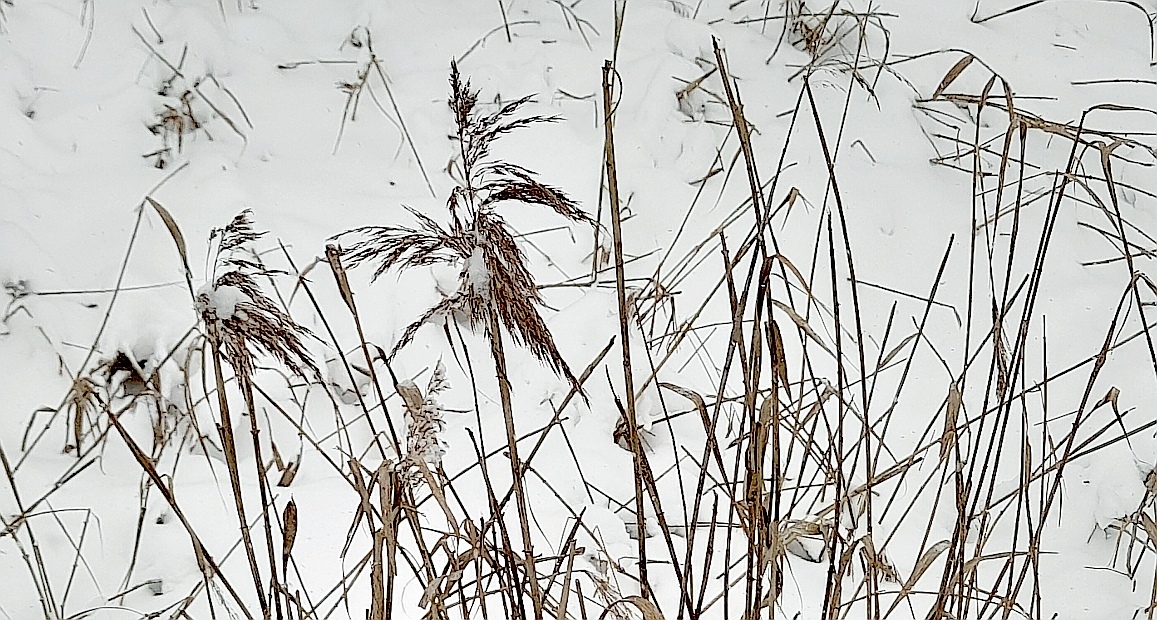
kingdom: Plantae
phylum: Tracheophyta
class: Liliopsida
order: Poales
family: Poaceae
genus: Phragmites
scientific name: Phragmites australis
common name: Common reed
